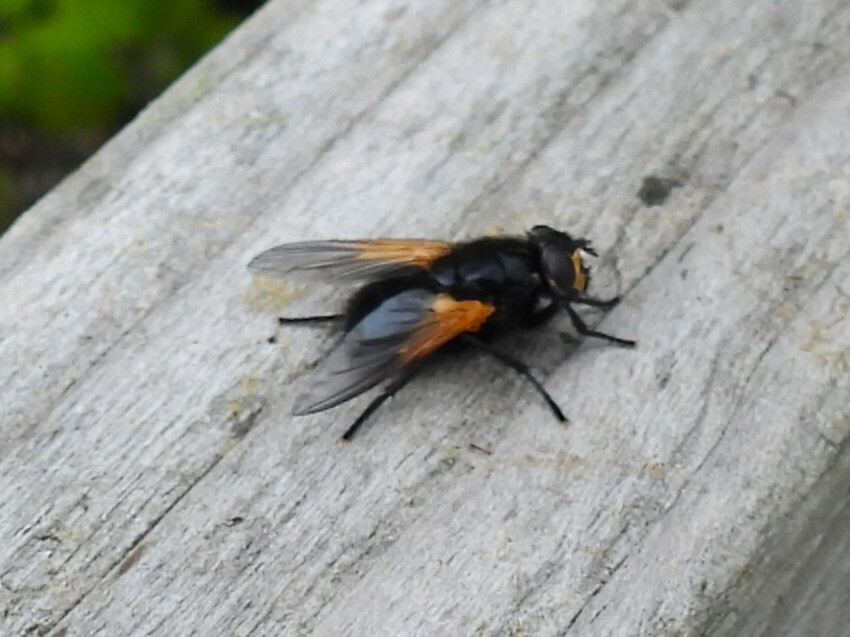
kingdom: Animalia
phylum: Arthropoda
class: Insecta
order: Diptera
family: Muscidae
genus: Mesembrina
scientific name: Mesembrina meridiana
